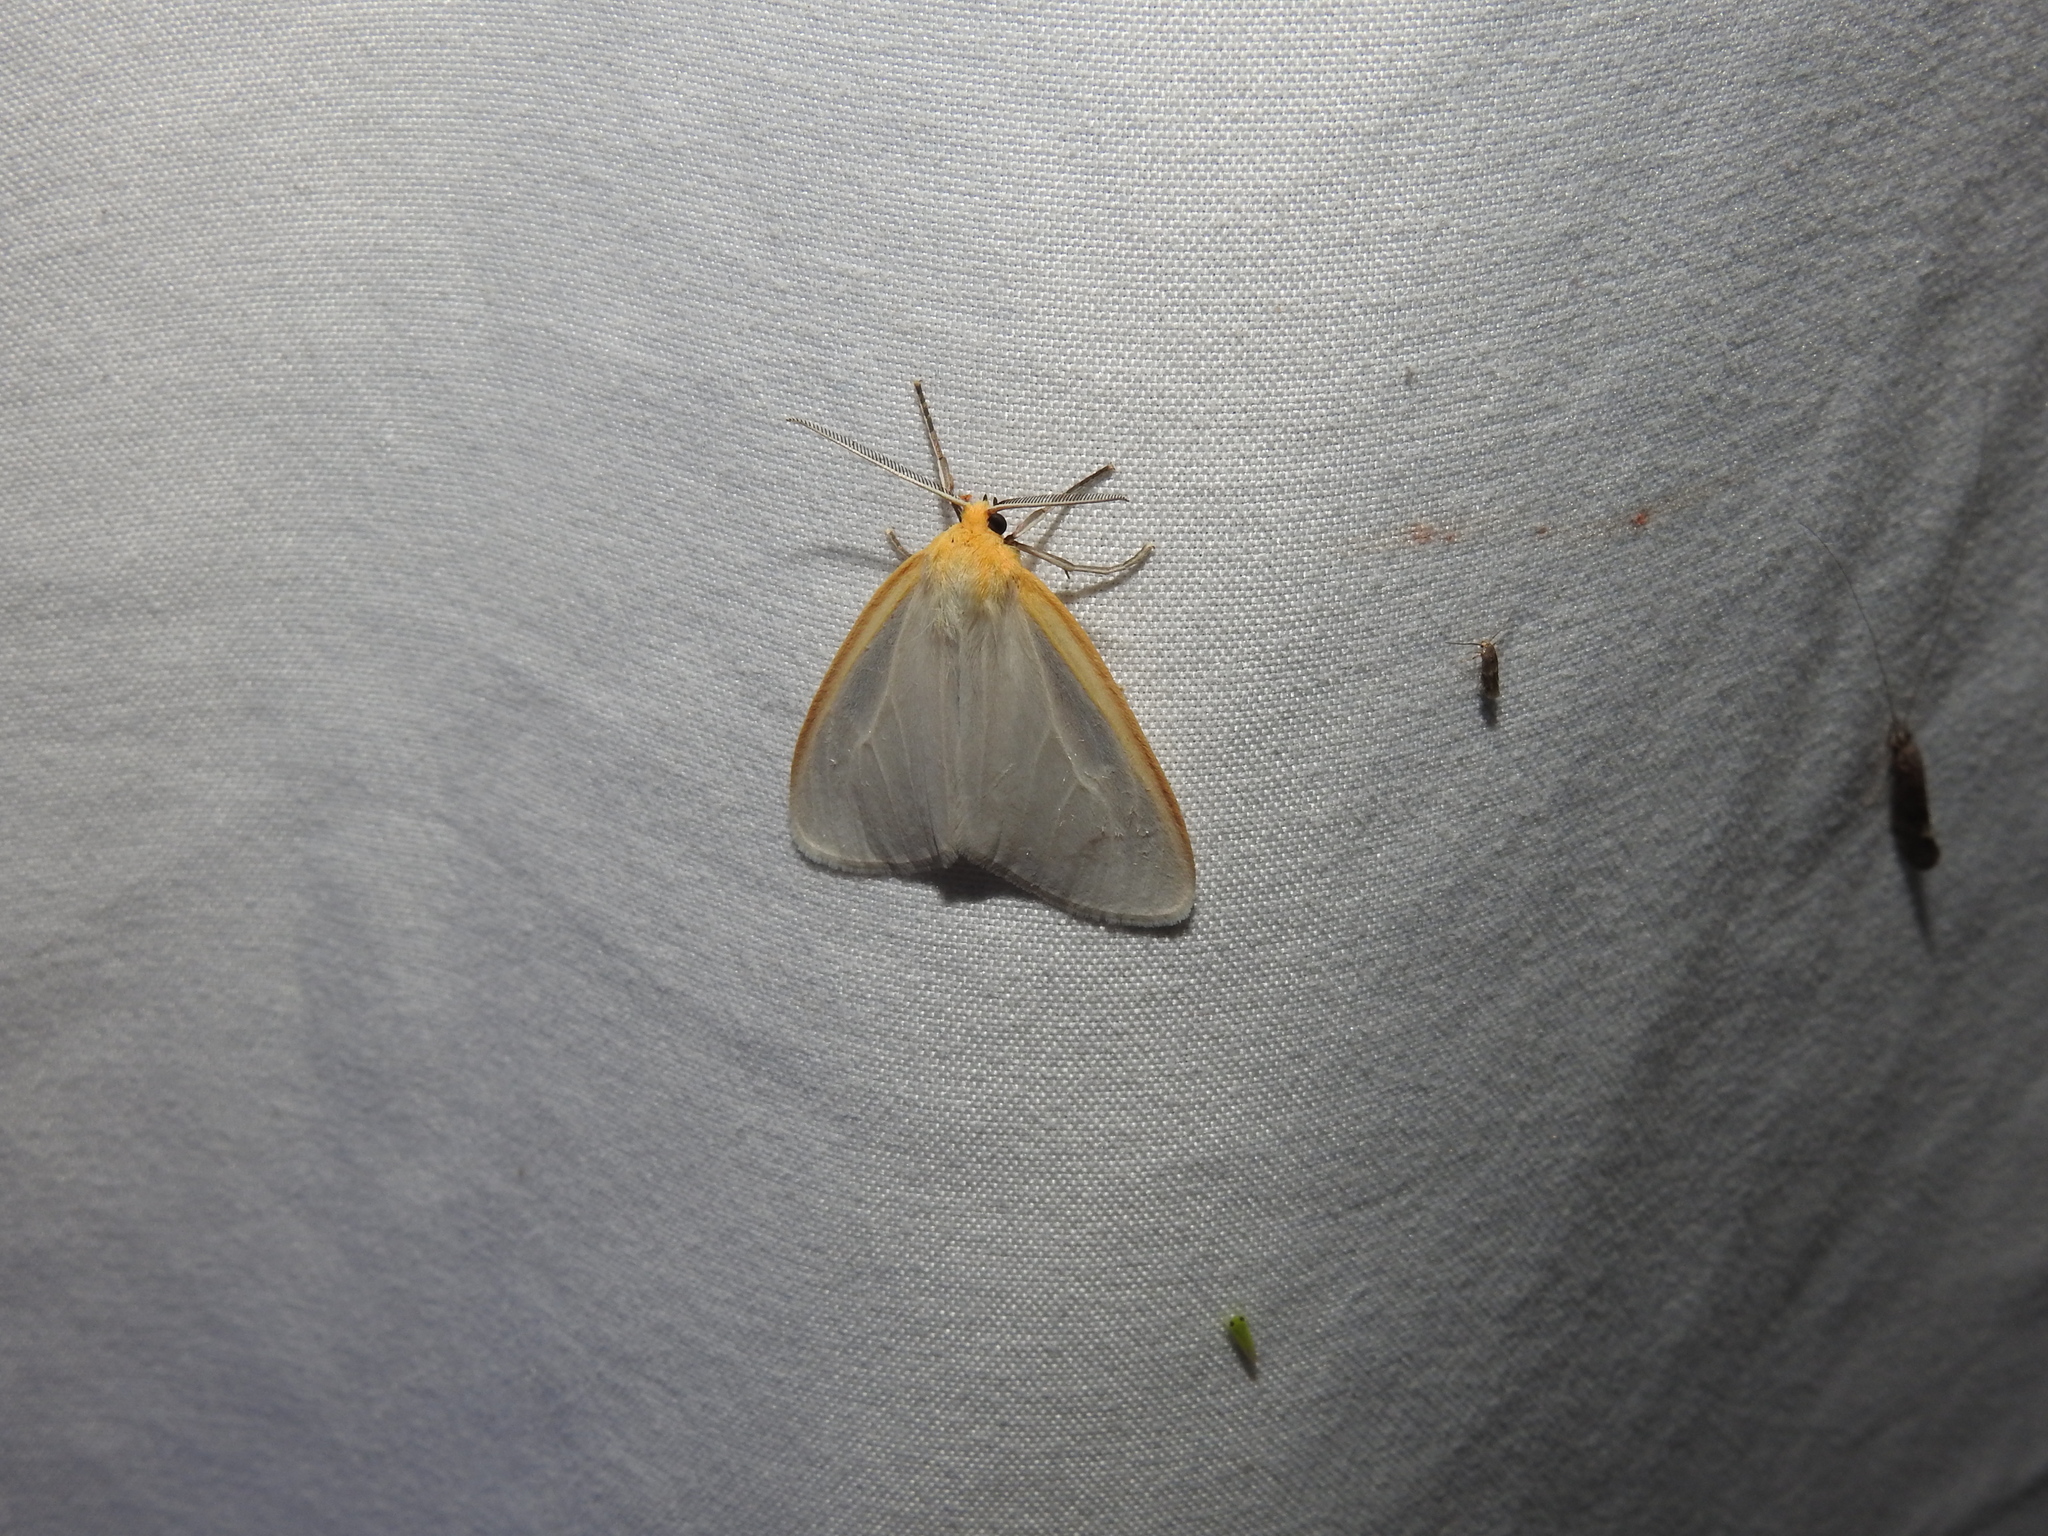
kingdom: Animalia
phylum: Arthropoda
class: Insecta
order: Lepidoptera
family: Erebidae
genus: Cycnia
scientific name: Cycnia tenera
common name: Delicate cycnia moth
